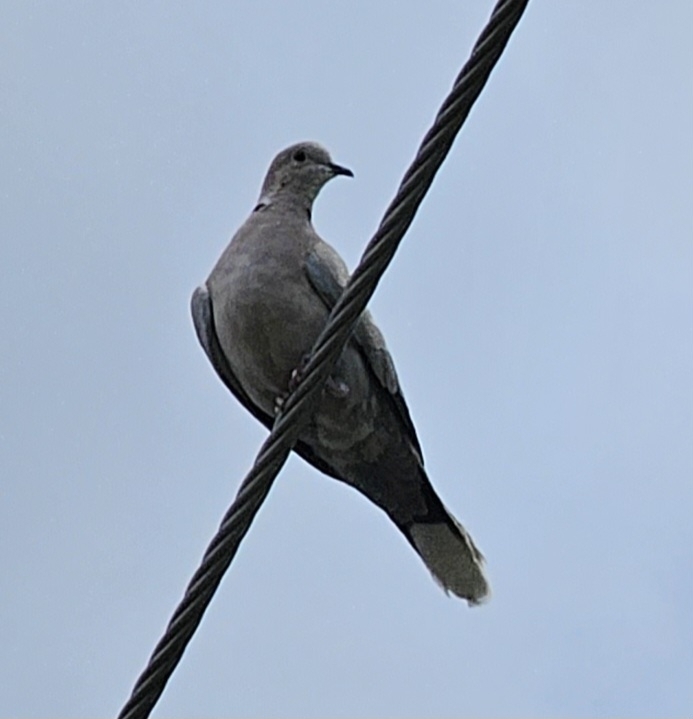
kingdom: Animalia
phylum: Chordata
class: Aves
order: Columbiformes
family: Columbidae
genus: Streptopelia
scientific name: Streptopelia decaocto
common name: Eurasian collared dove
